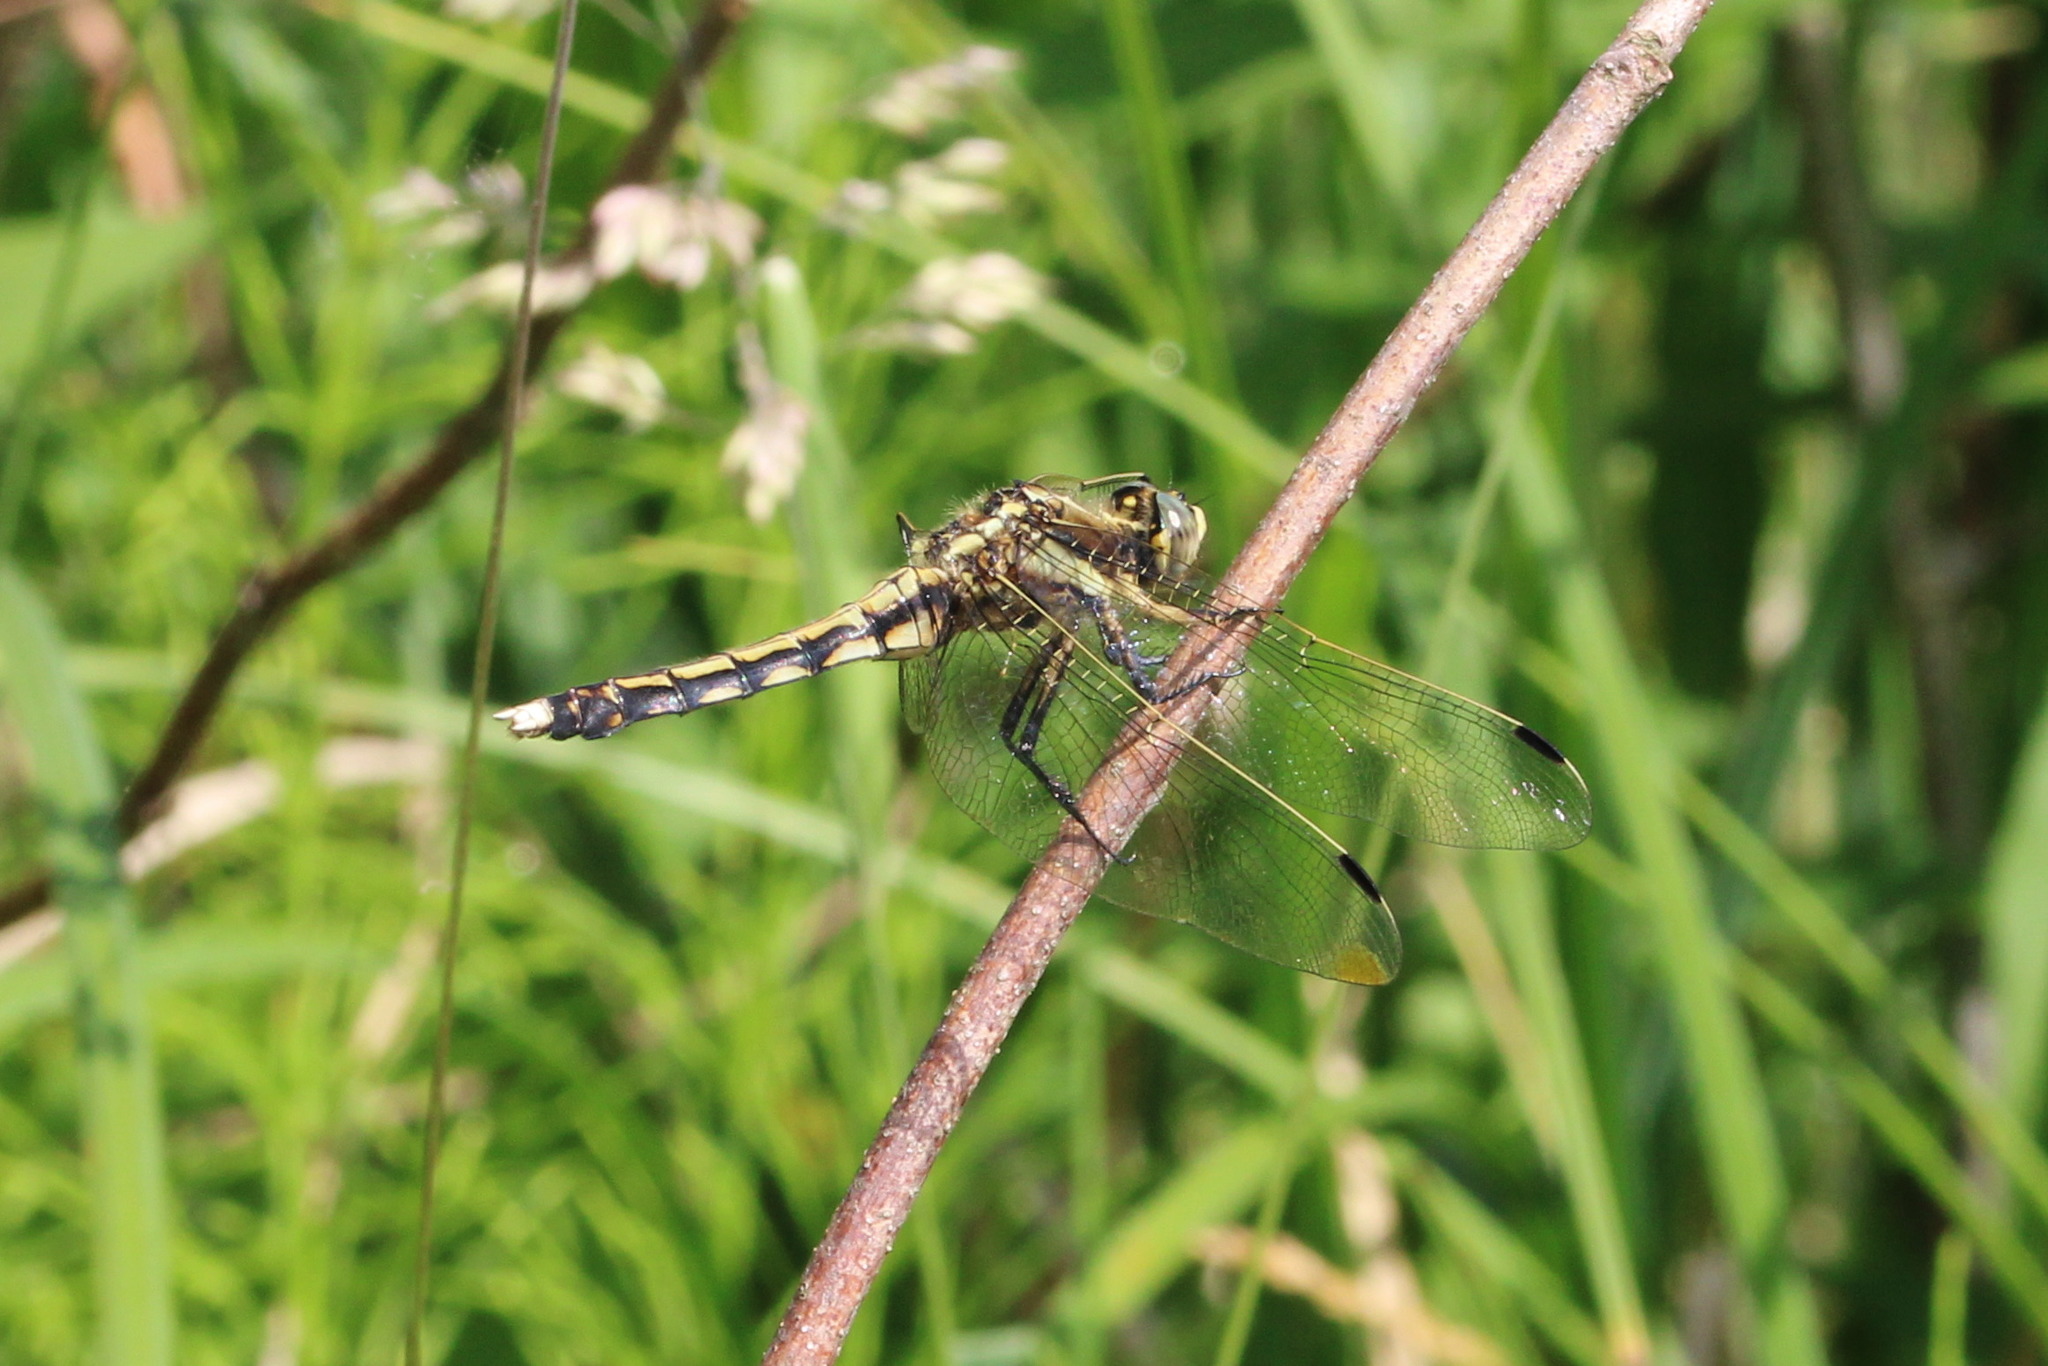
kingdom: Animalia
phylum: Arthropoda
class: Insecta
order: Odonata
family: Libellulidae
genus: Orthetrum
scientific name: Orthetrum albistylum
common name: White-tailed skimmer
